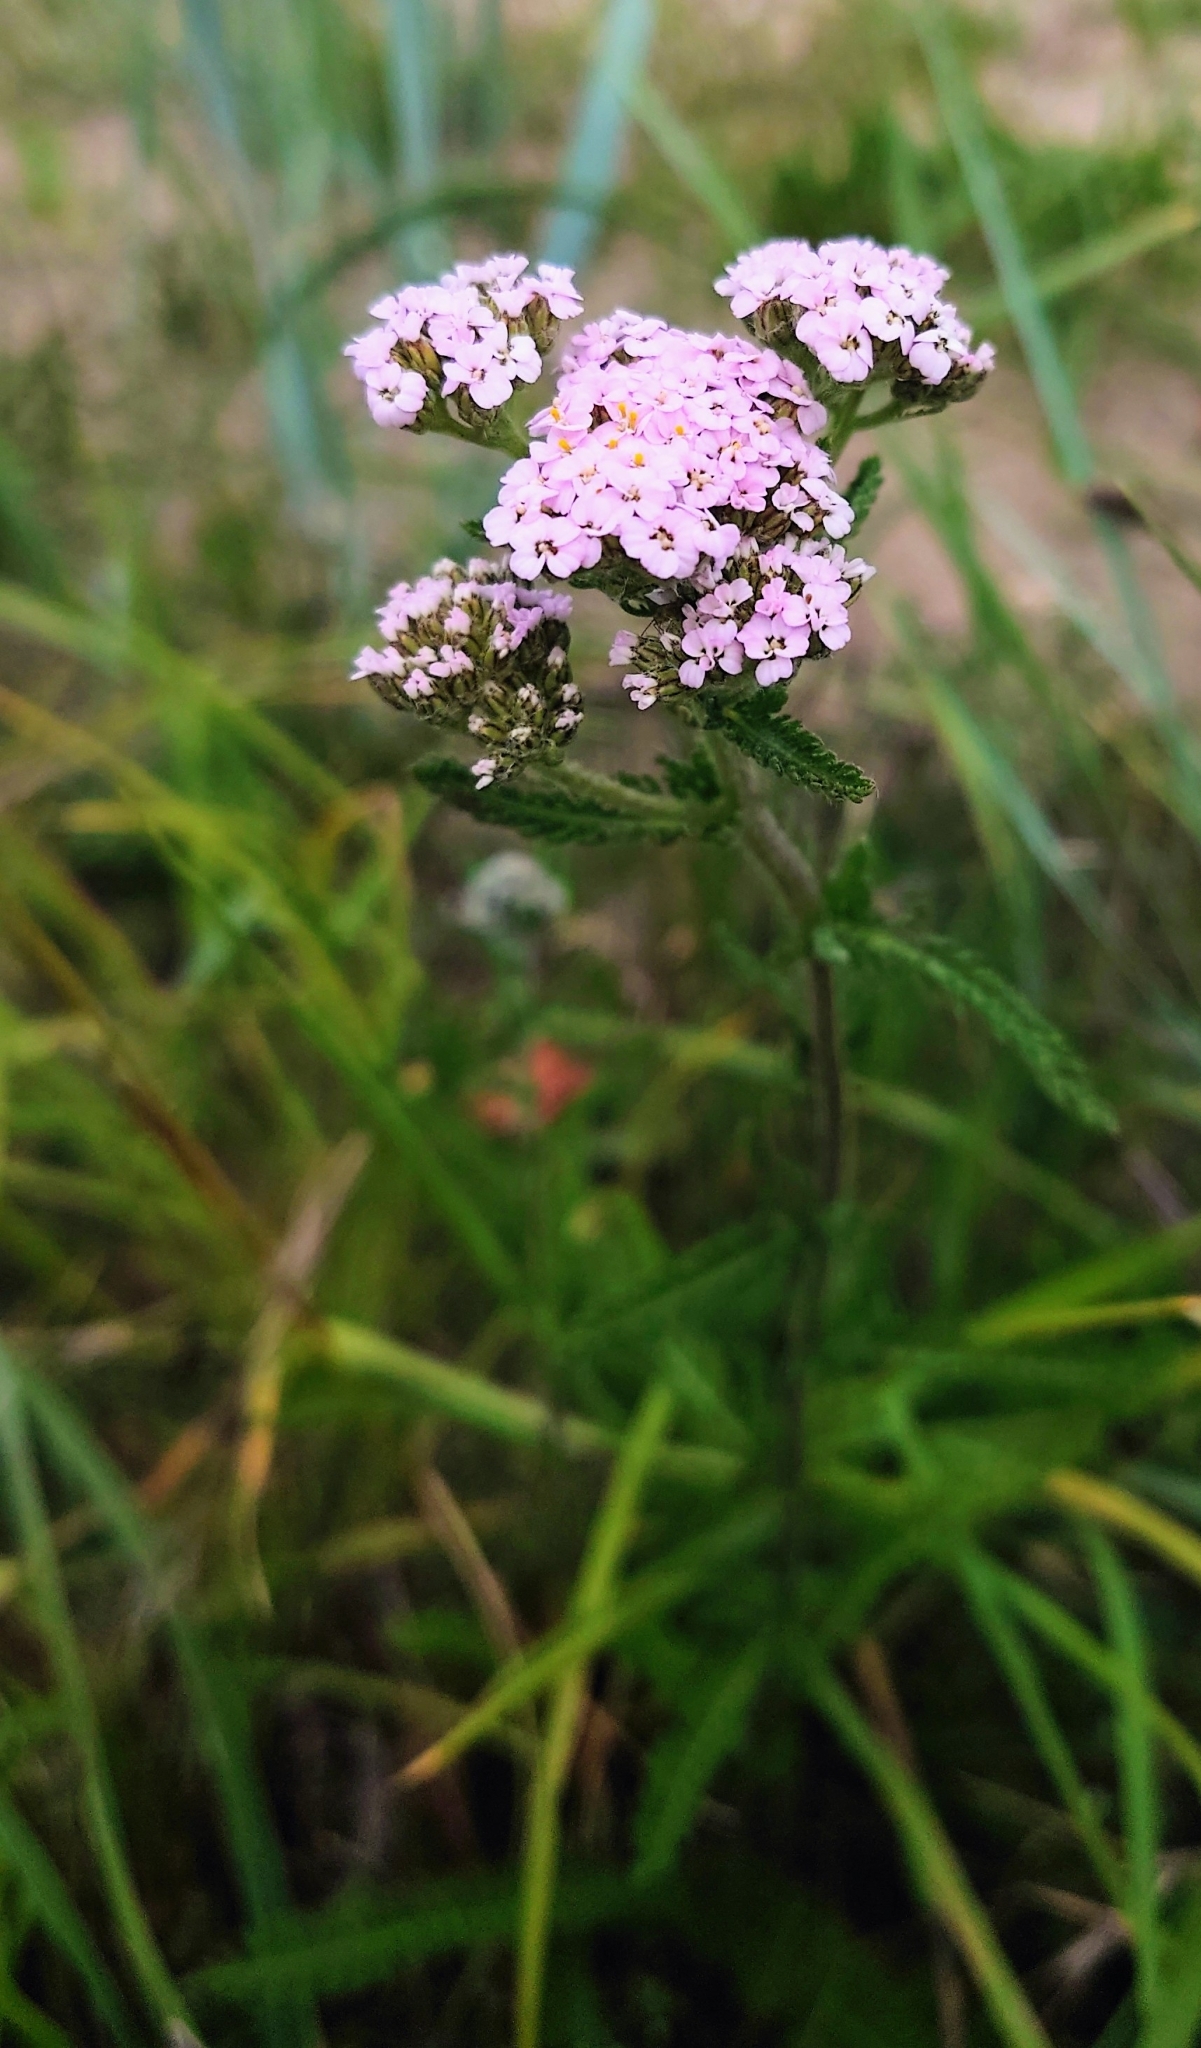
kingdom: Plantae
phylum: Tracheophyta
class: Magnoliopsida
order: Asterales
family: Asteraceae
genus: Achillea
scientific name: Achillea millefolium
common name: Yarrow
